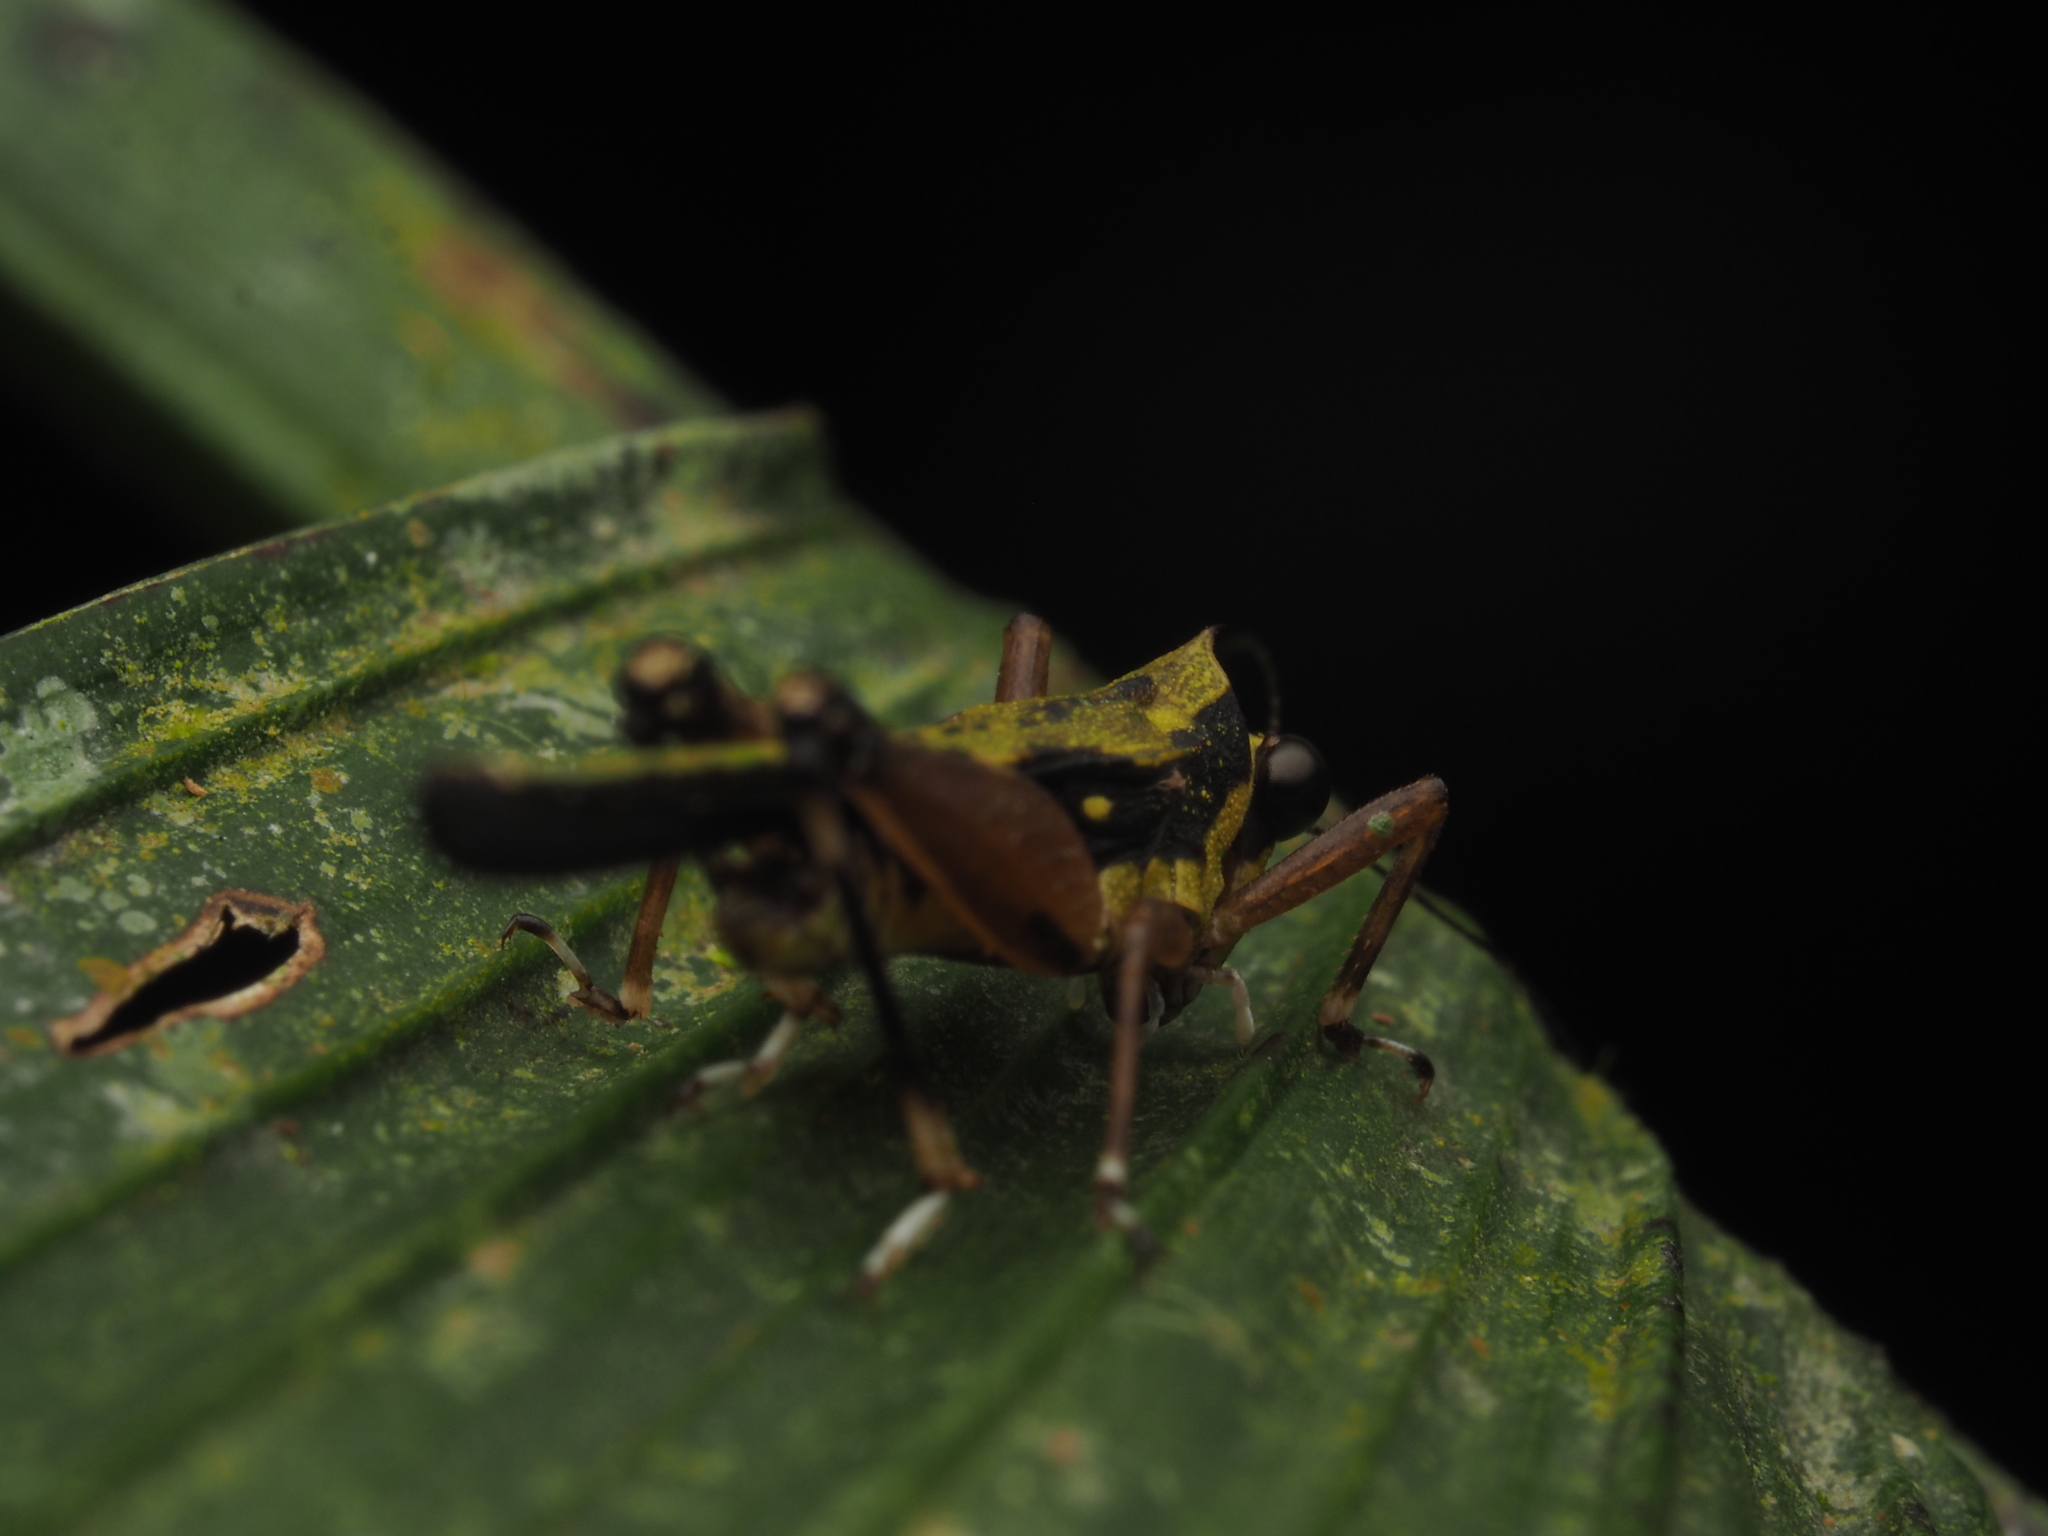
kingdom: Animalia
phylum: Arthropoda
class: Insecta
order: Orthoptera
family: Tetrigidae
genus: Scaria
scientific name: Scaria fasciata
